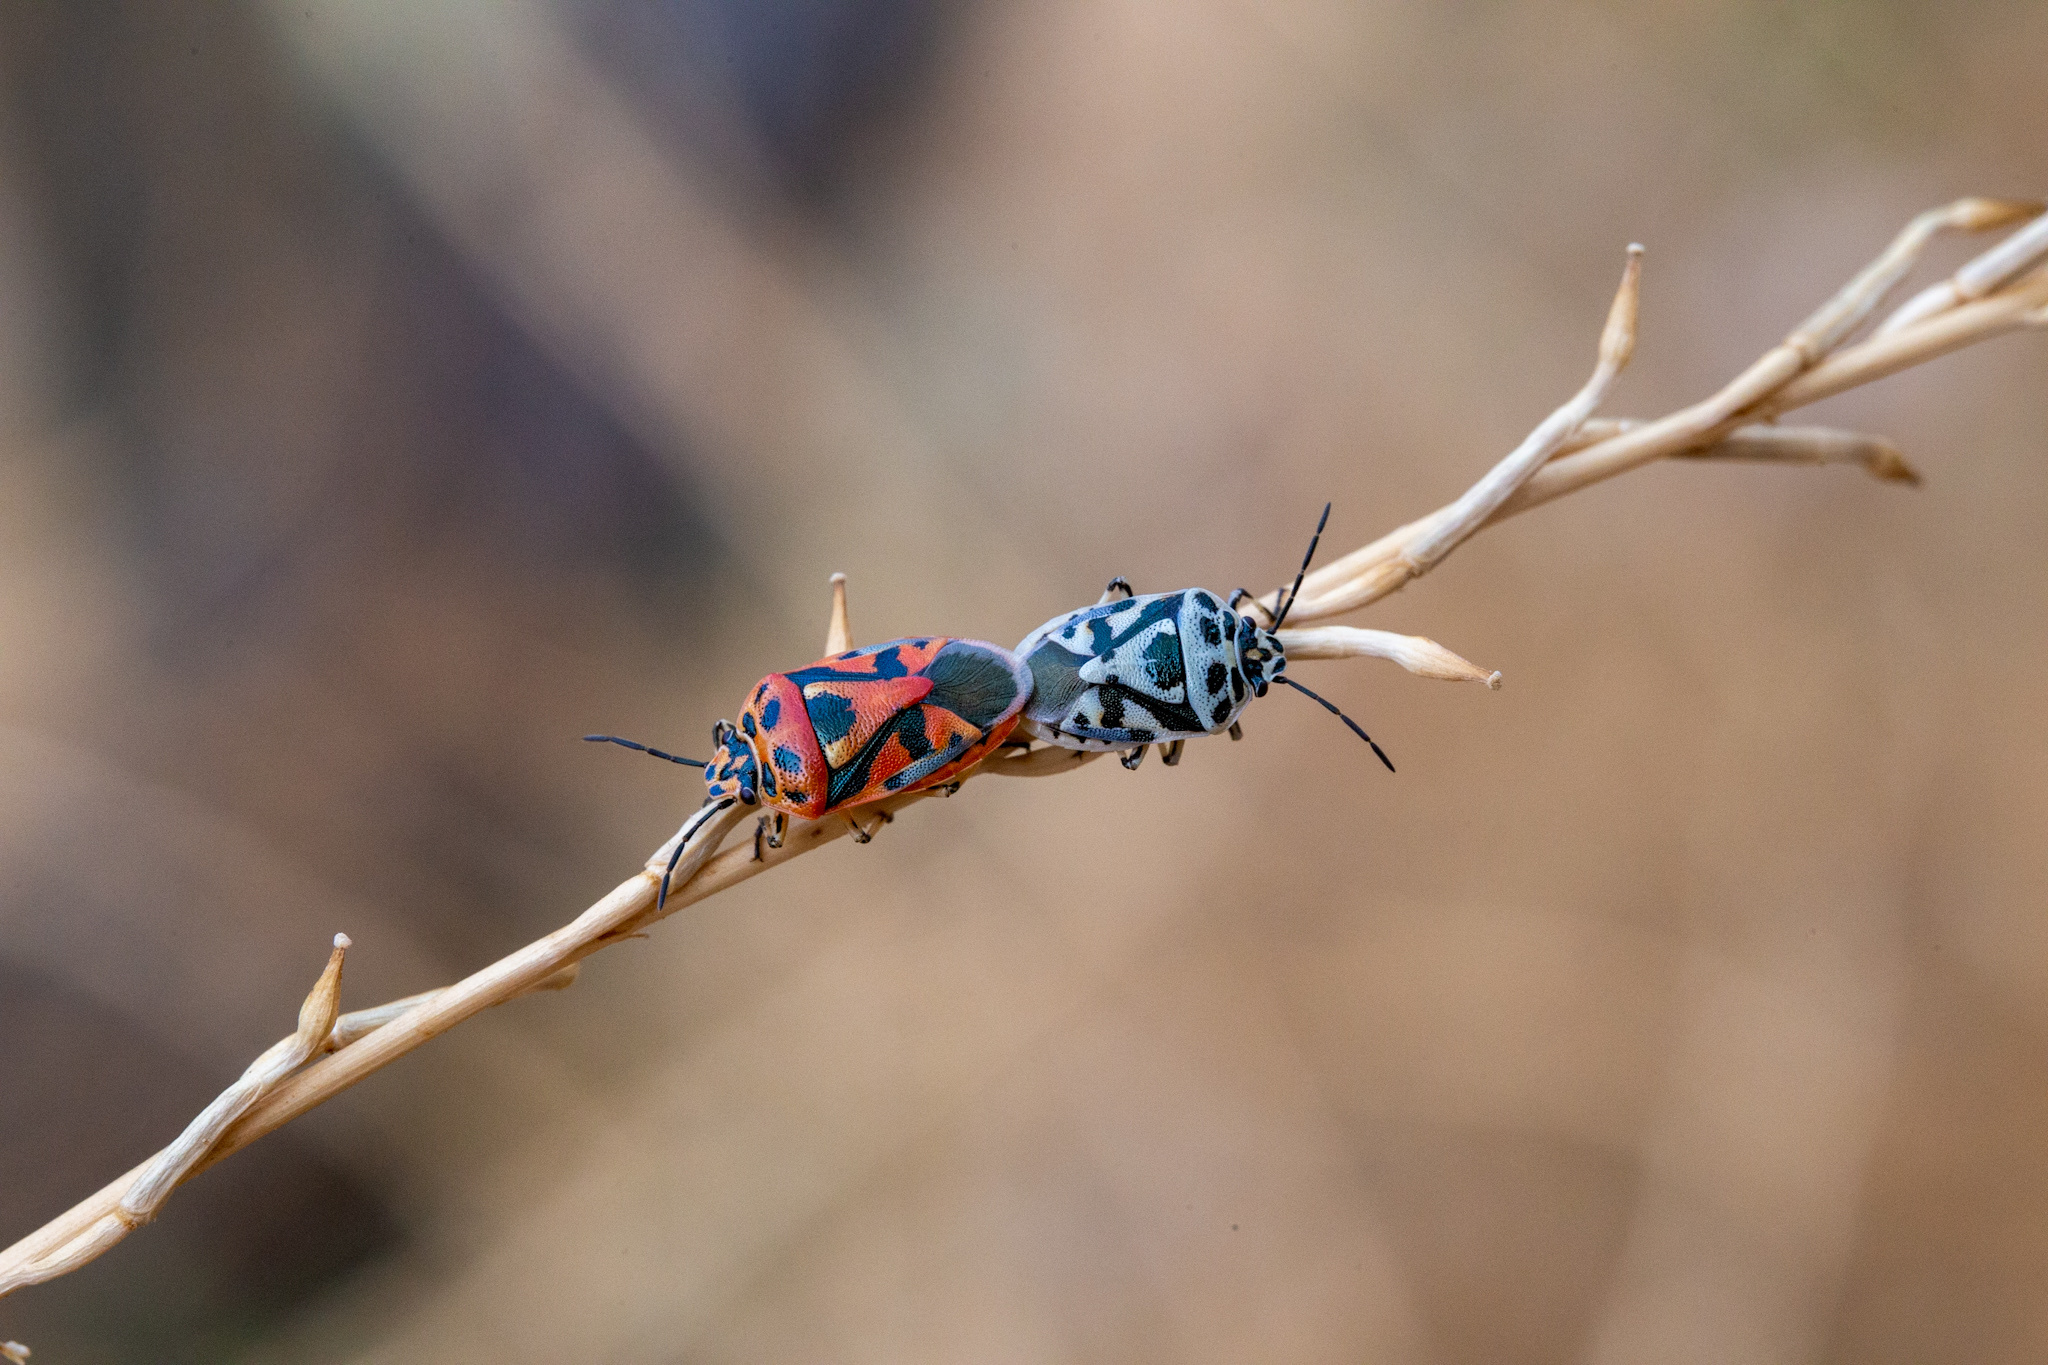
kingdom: Animalia
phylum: Arthropoda
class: Insecta
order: Hemiptera
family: Pentatomidae
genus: Eurydema
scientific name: Eurydema ornata
